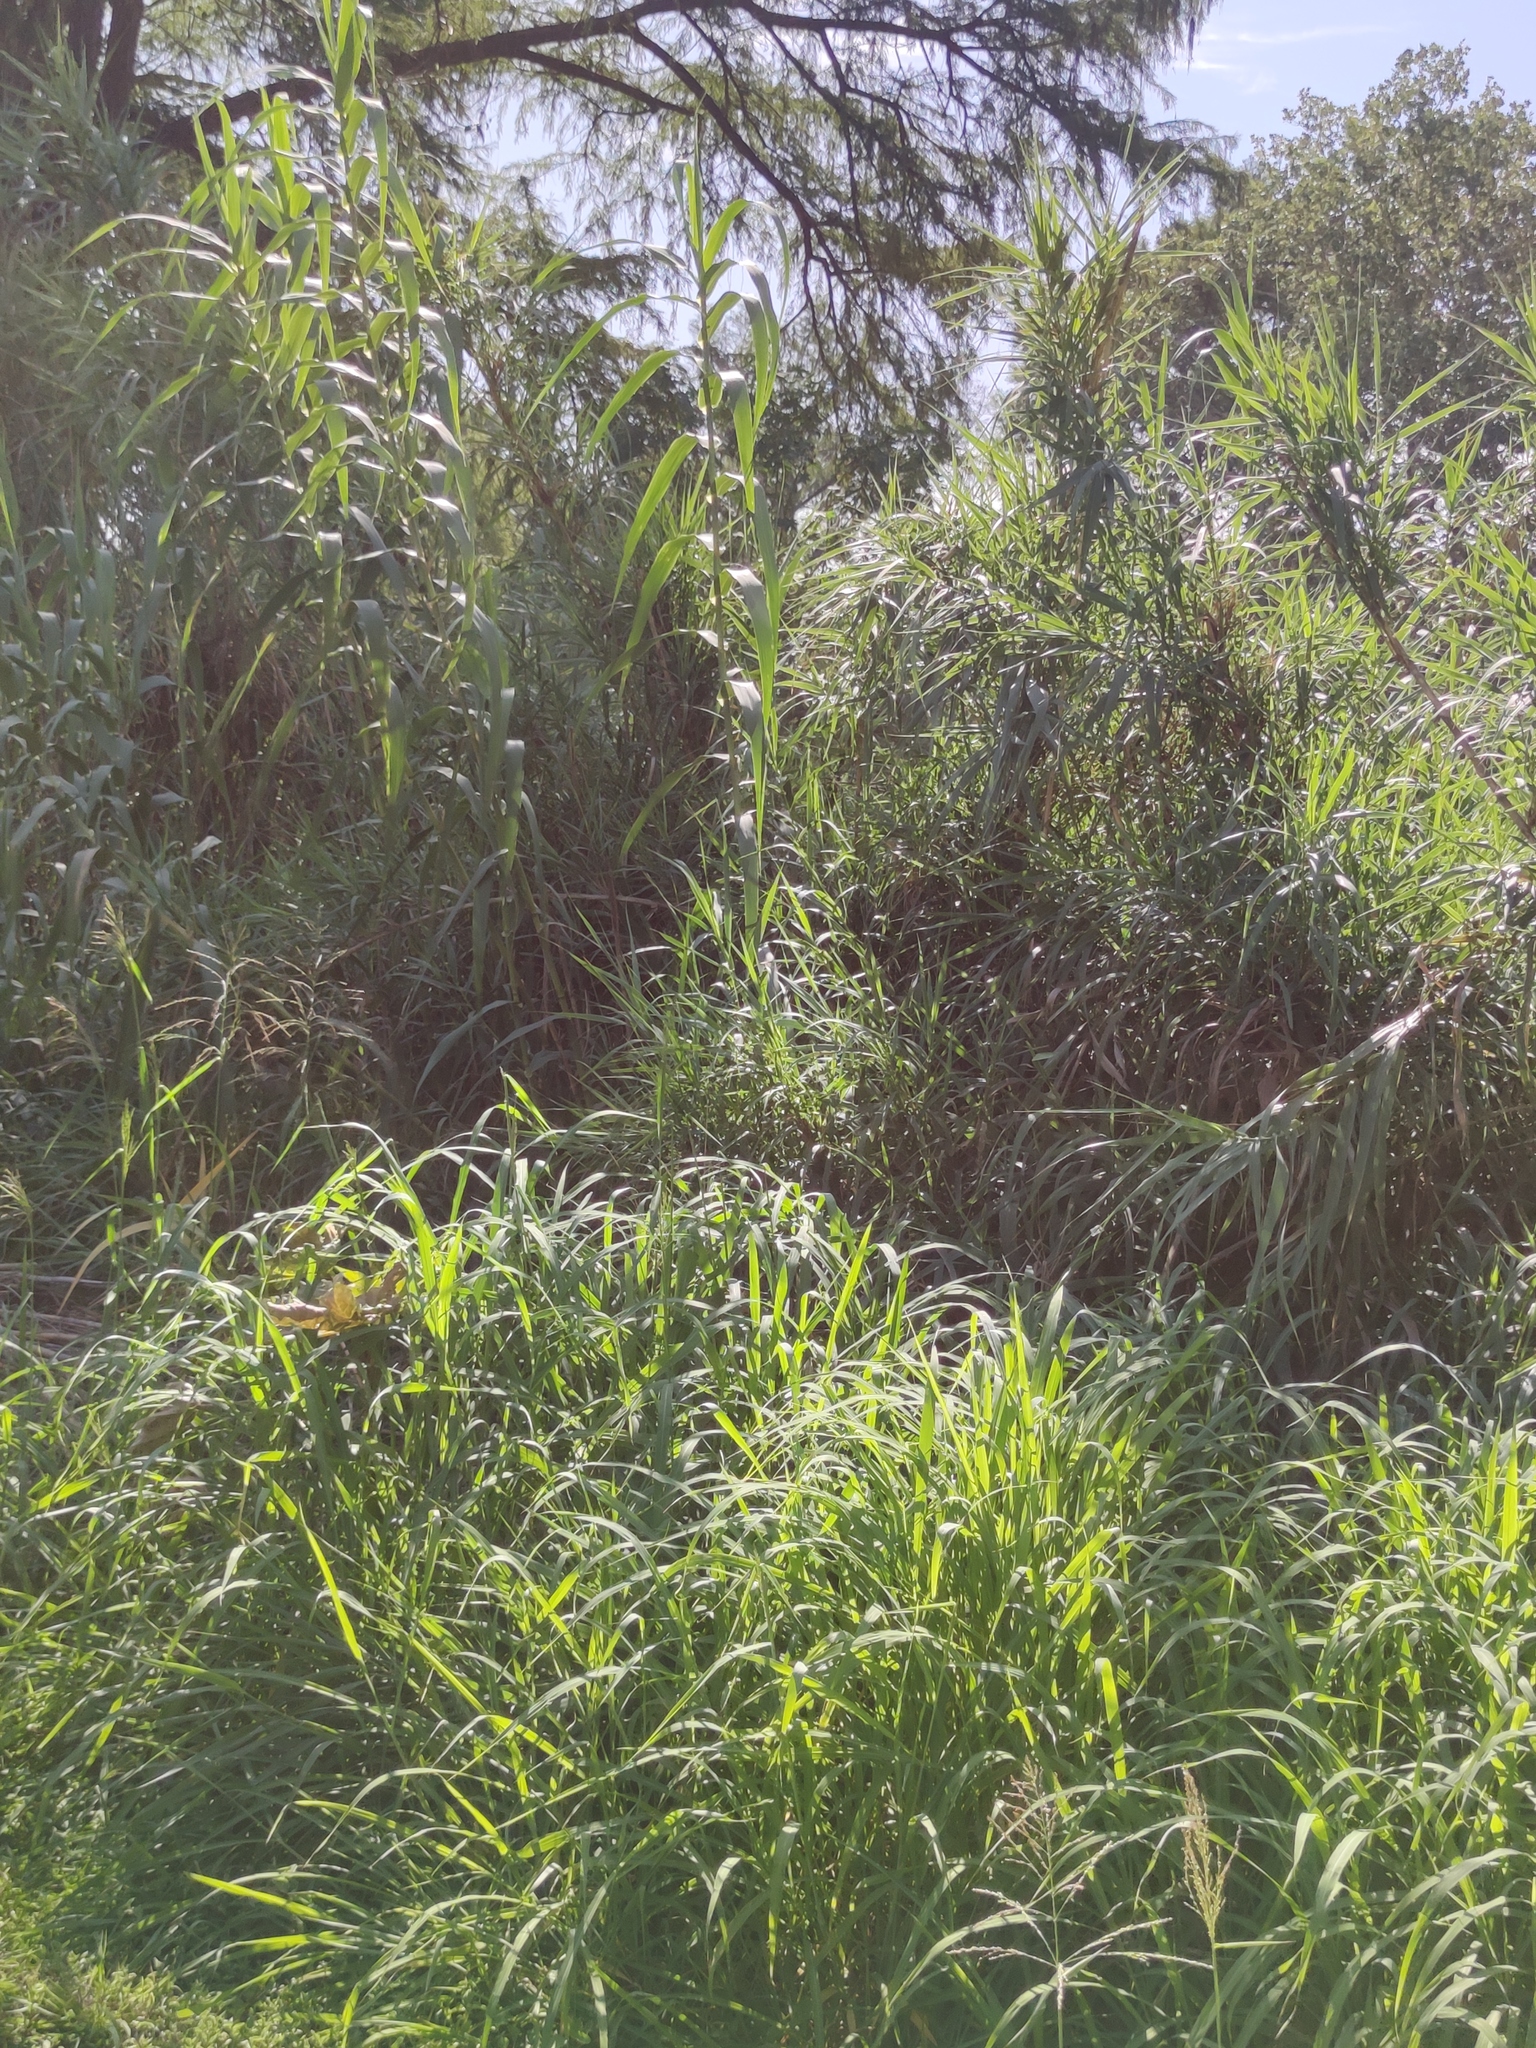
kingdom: Plantae
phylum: Tracheophyta
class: Liliopsida
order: Poales
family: Poaceae
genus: Arundo
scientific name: Arundo donax
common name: Giant reed
